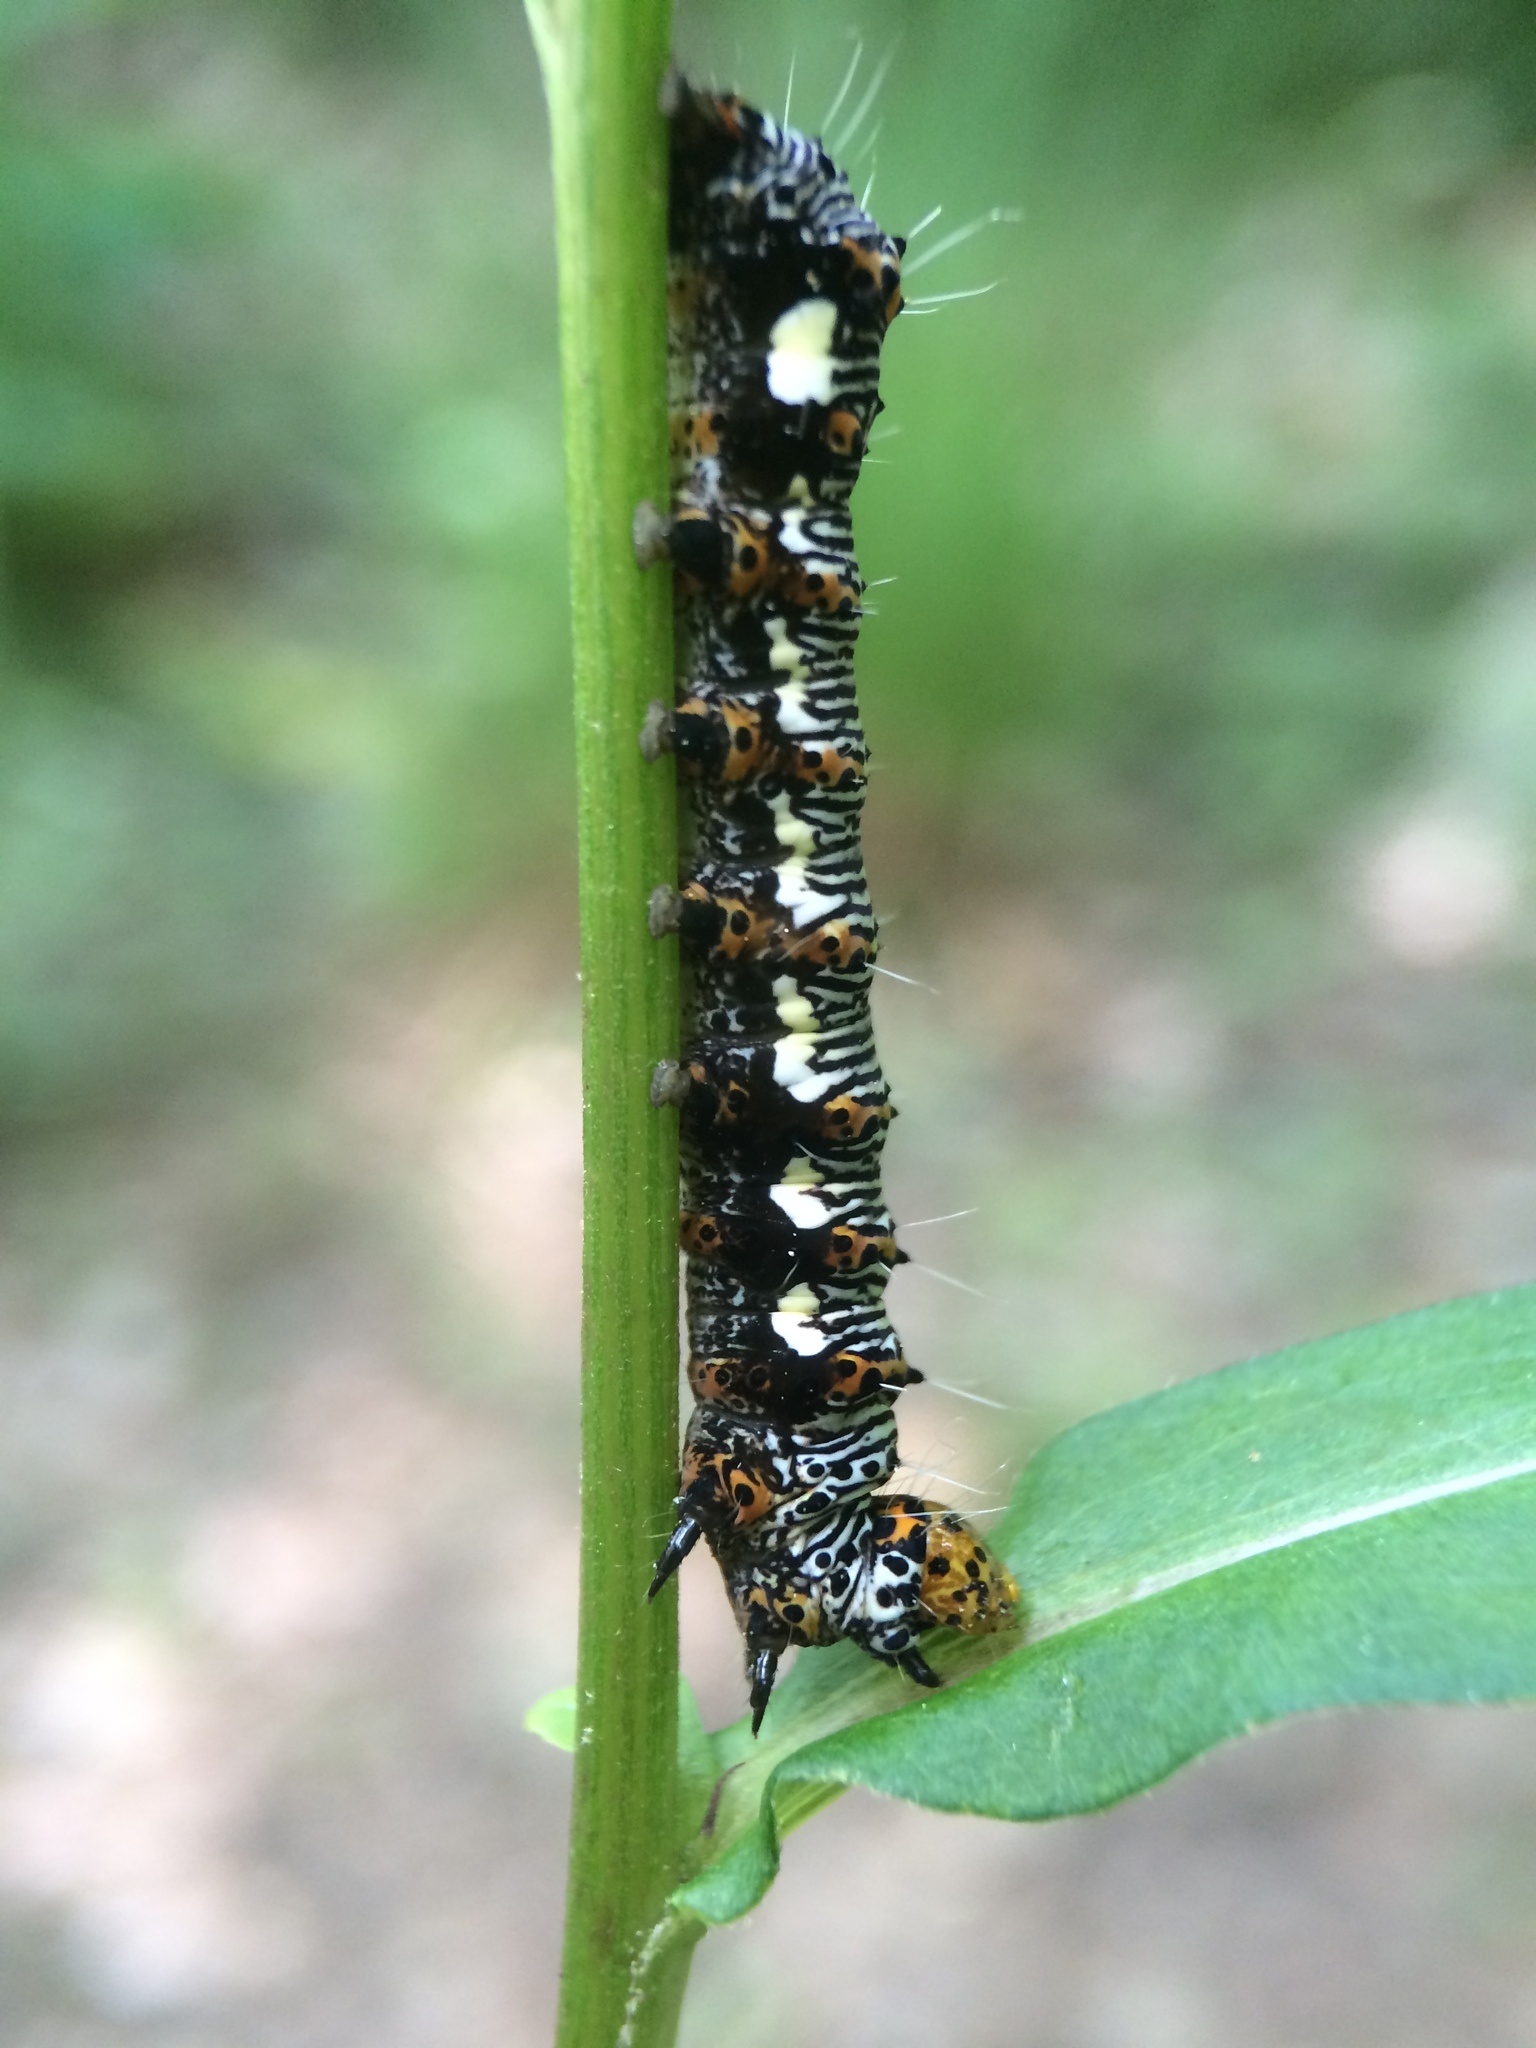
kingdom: Animalia
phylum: Arthropoda
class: Insecta
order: Lepidoptera
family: Noctuidae
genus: Alypia
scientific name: Alypia octomaculata
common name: Eight-spotted forester
